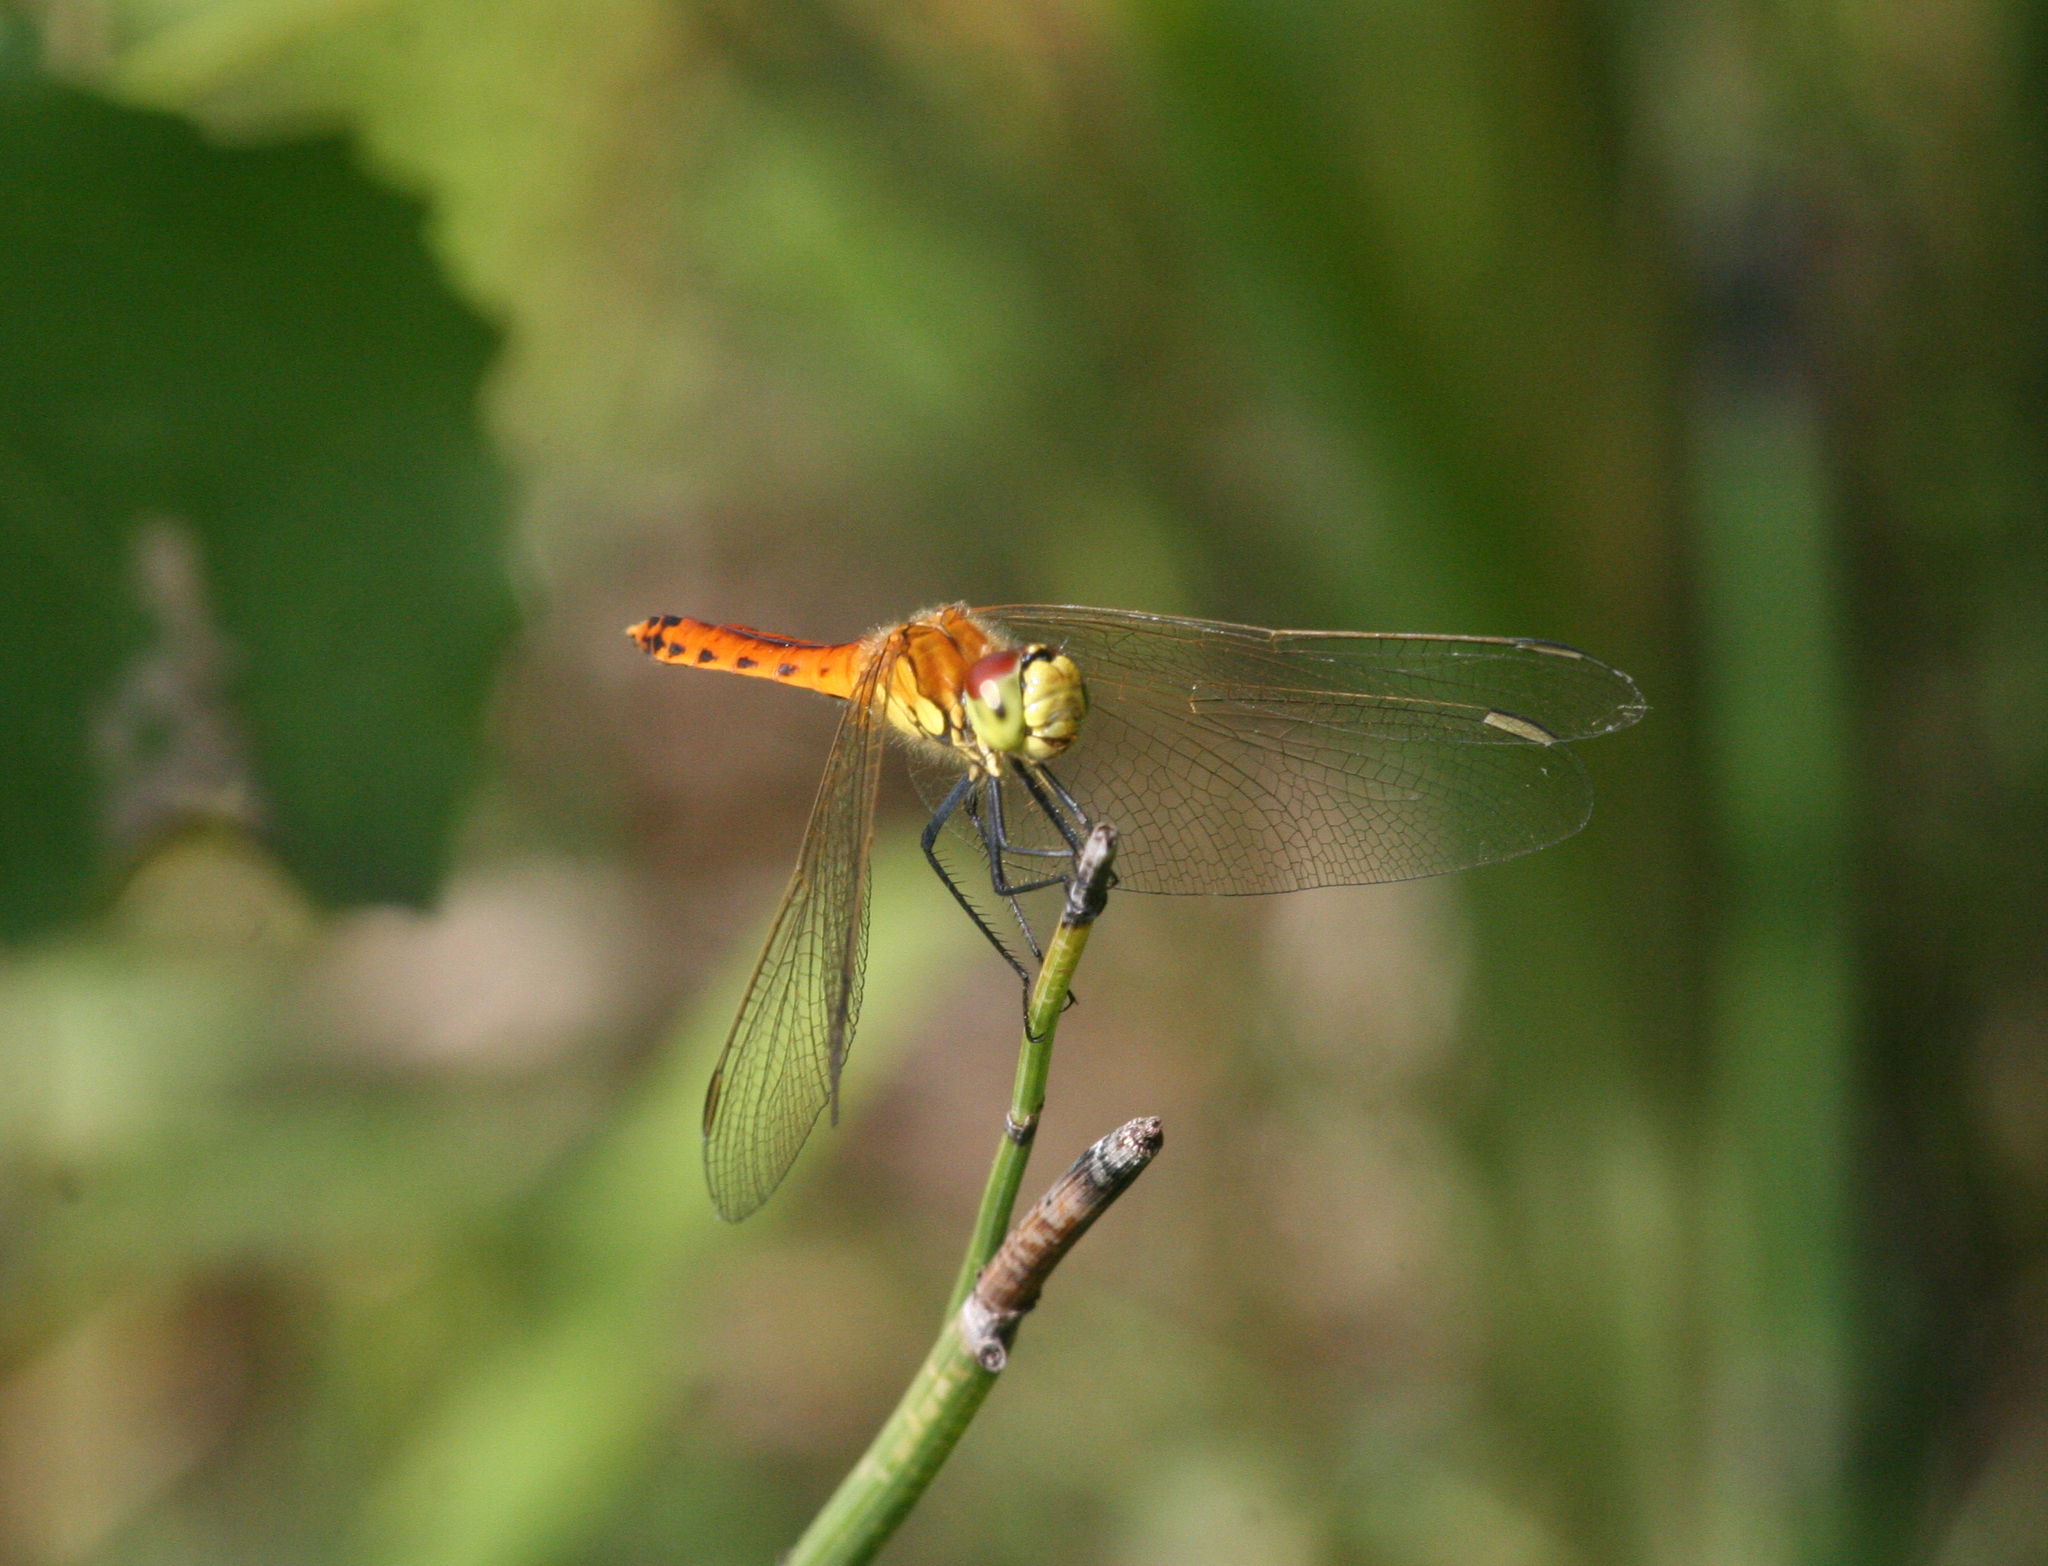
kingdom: Animalia
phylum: Arthropoda
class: Insecta
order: Odonata
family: Libellulidae
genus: Sympetrum
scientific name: Sympetrum depressiusculum
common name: Spotted darter
